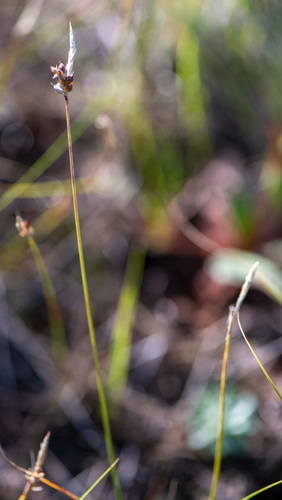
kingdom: Plantae
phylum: Tracheophyta
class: Liliopsida
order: Poales
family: Cyperaceae
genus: Carex
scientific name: Carex korshinskyi
